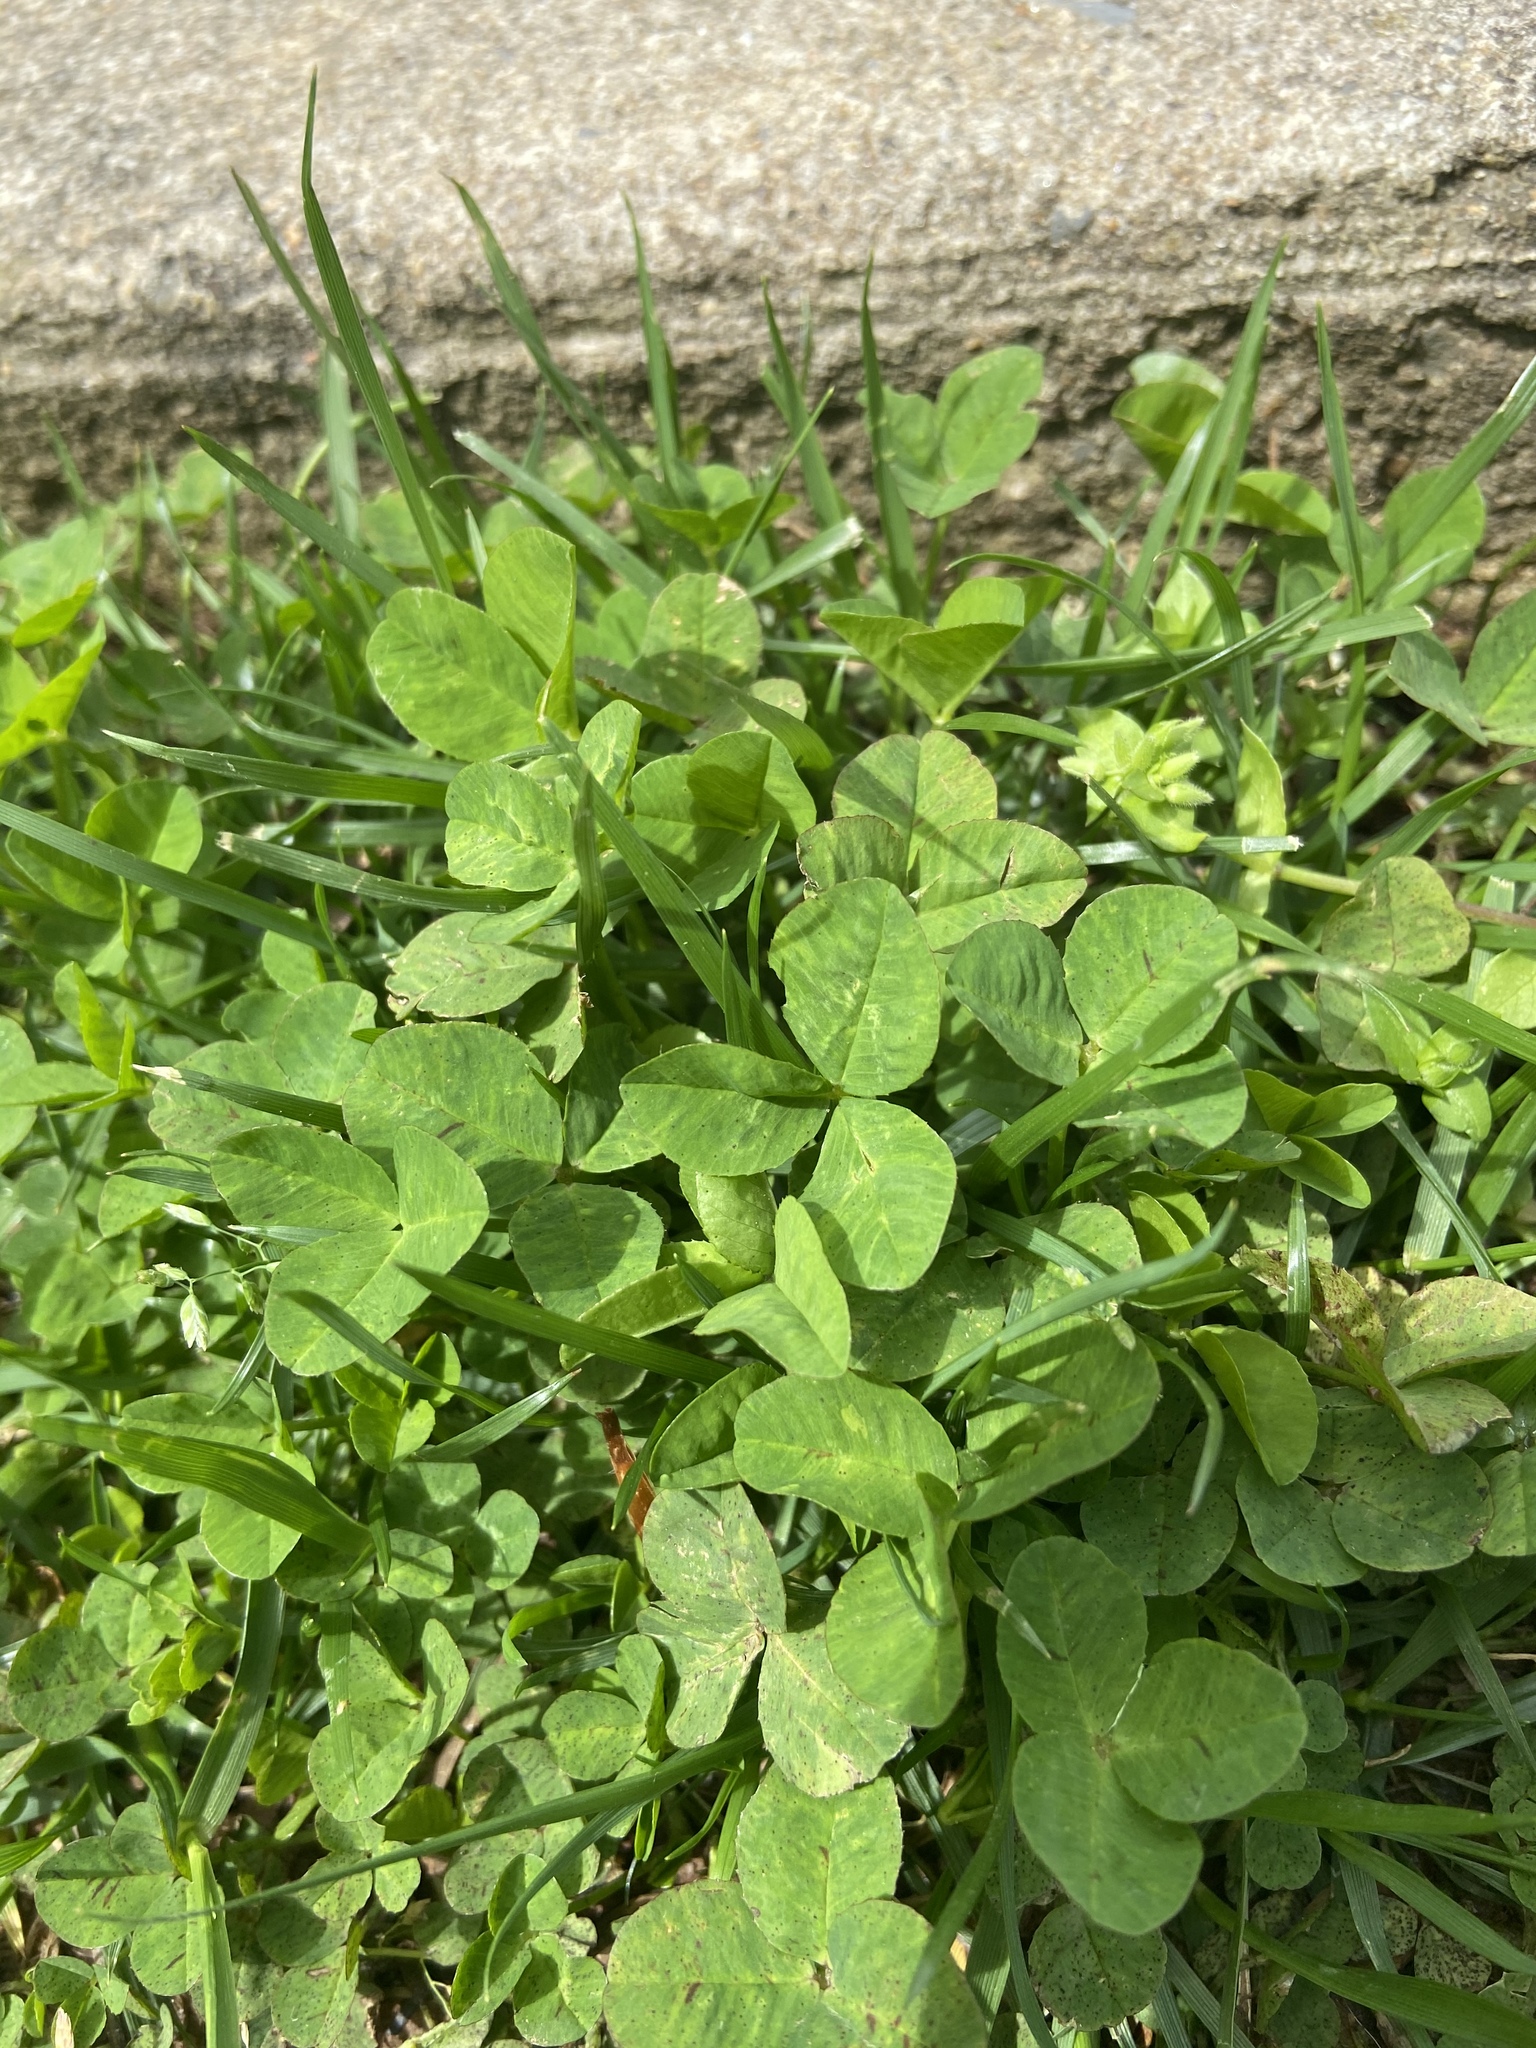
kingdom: Plantae
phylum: Tracheophyta
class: Magnoliopsida
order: Fabales
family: Fabaceae
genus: Trifolium
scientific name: Trifolium repens
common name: White clover
